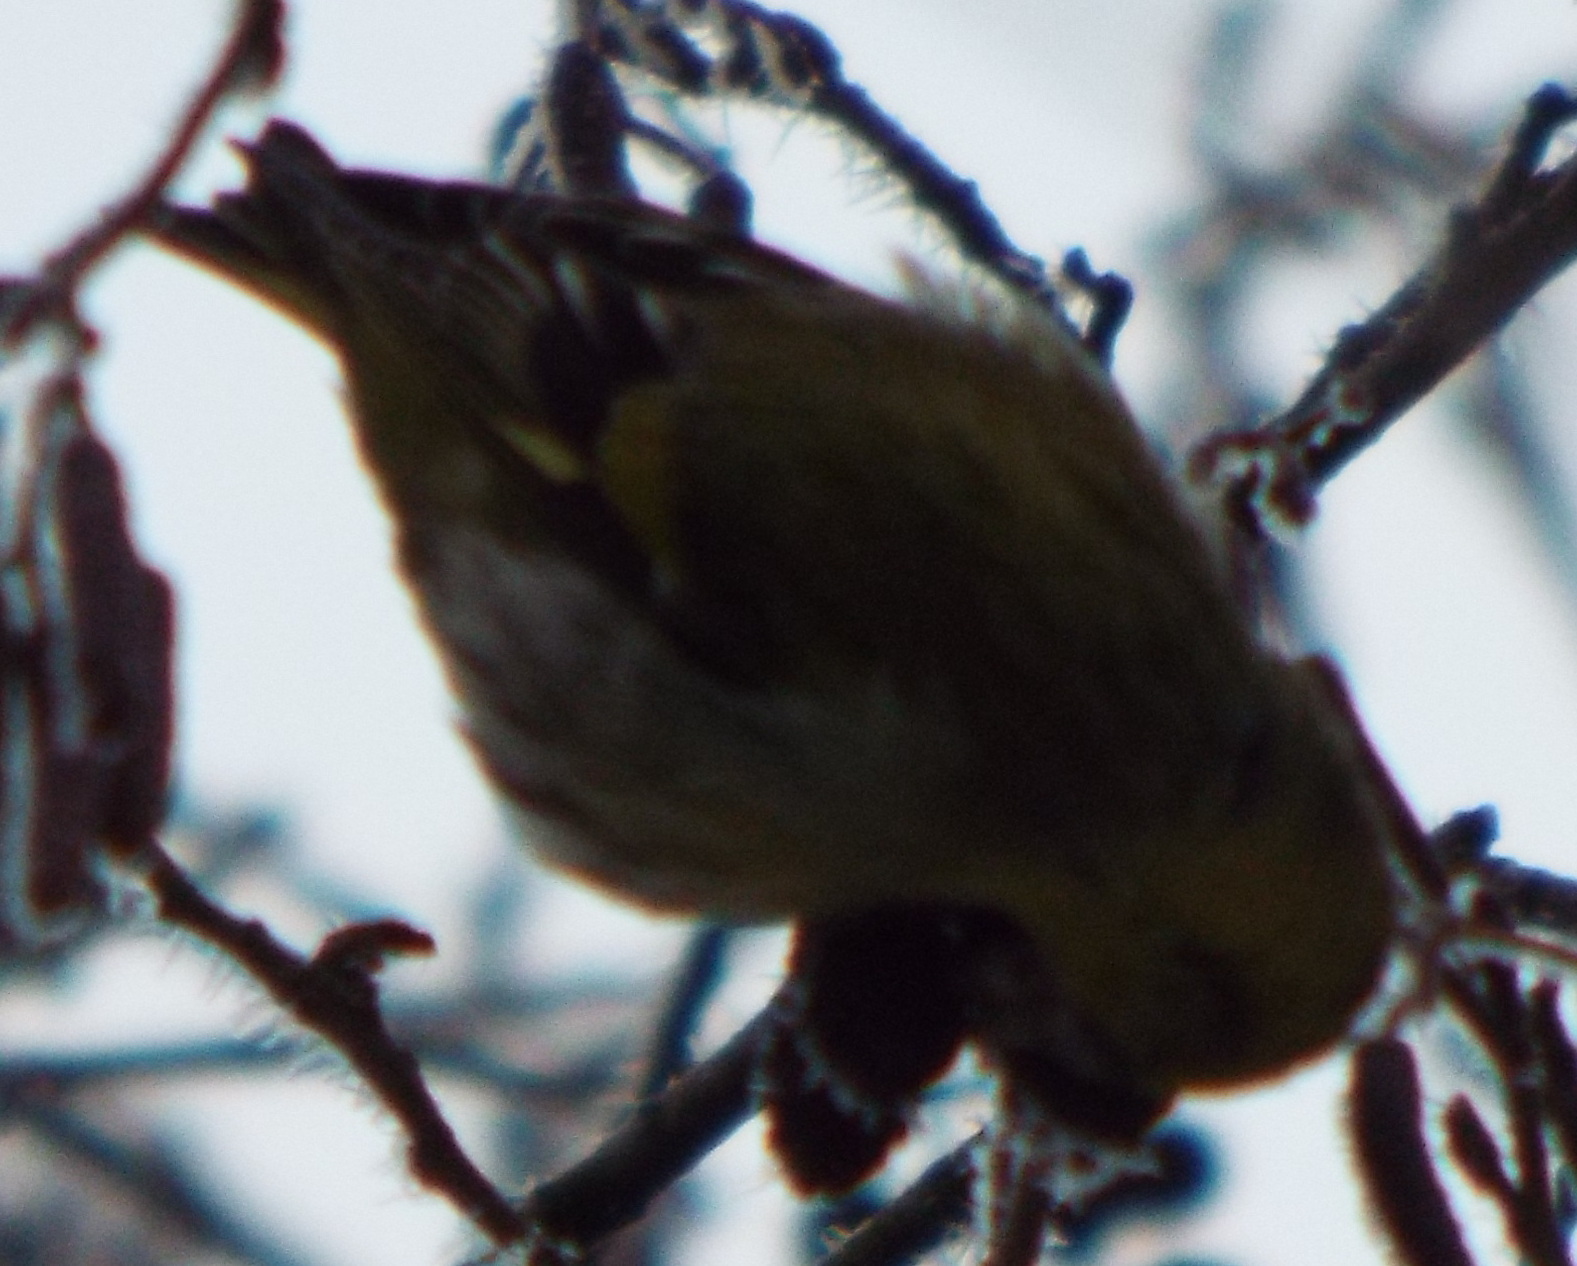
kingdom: Animalia
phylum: Chordata
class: Aves
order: Passeriformes
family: Fringillidae
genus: Spinus
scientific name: Spinus spinus
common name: Eurasian siskin
